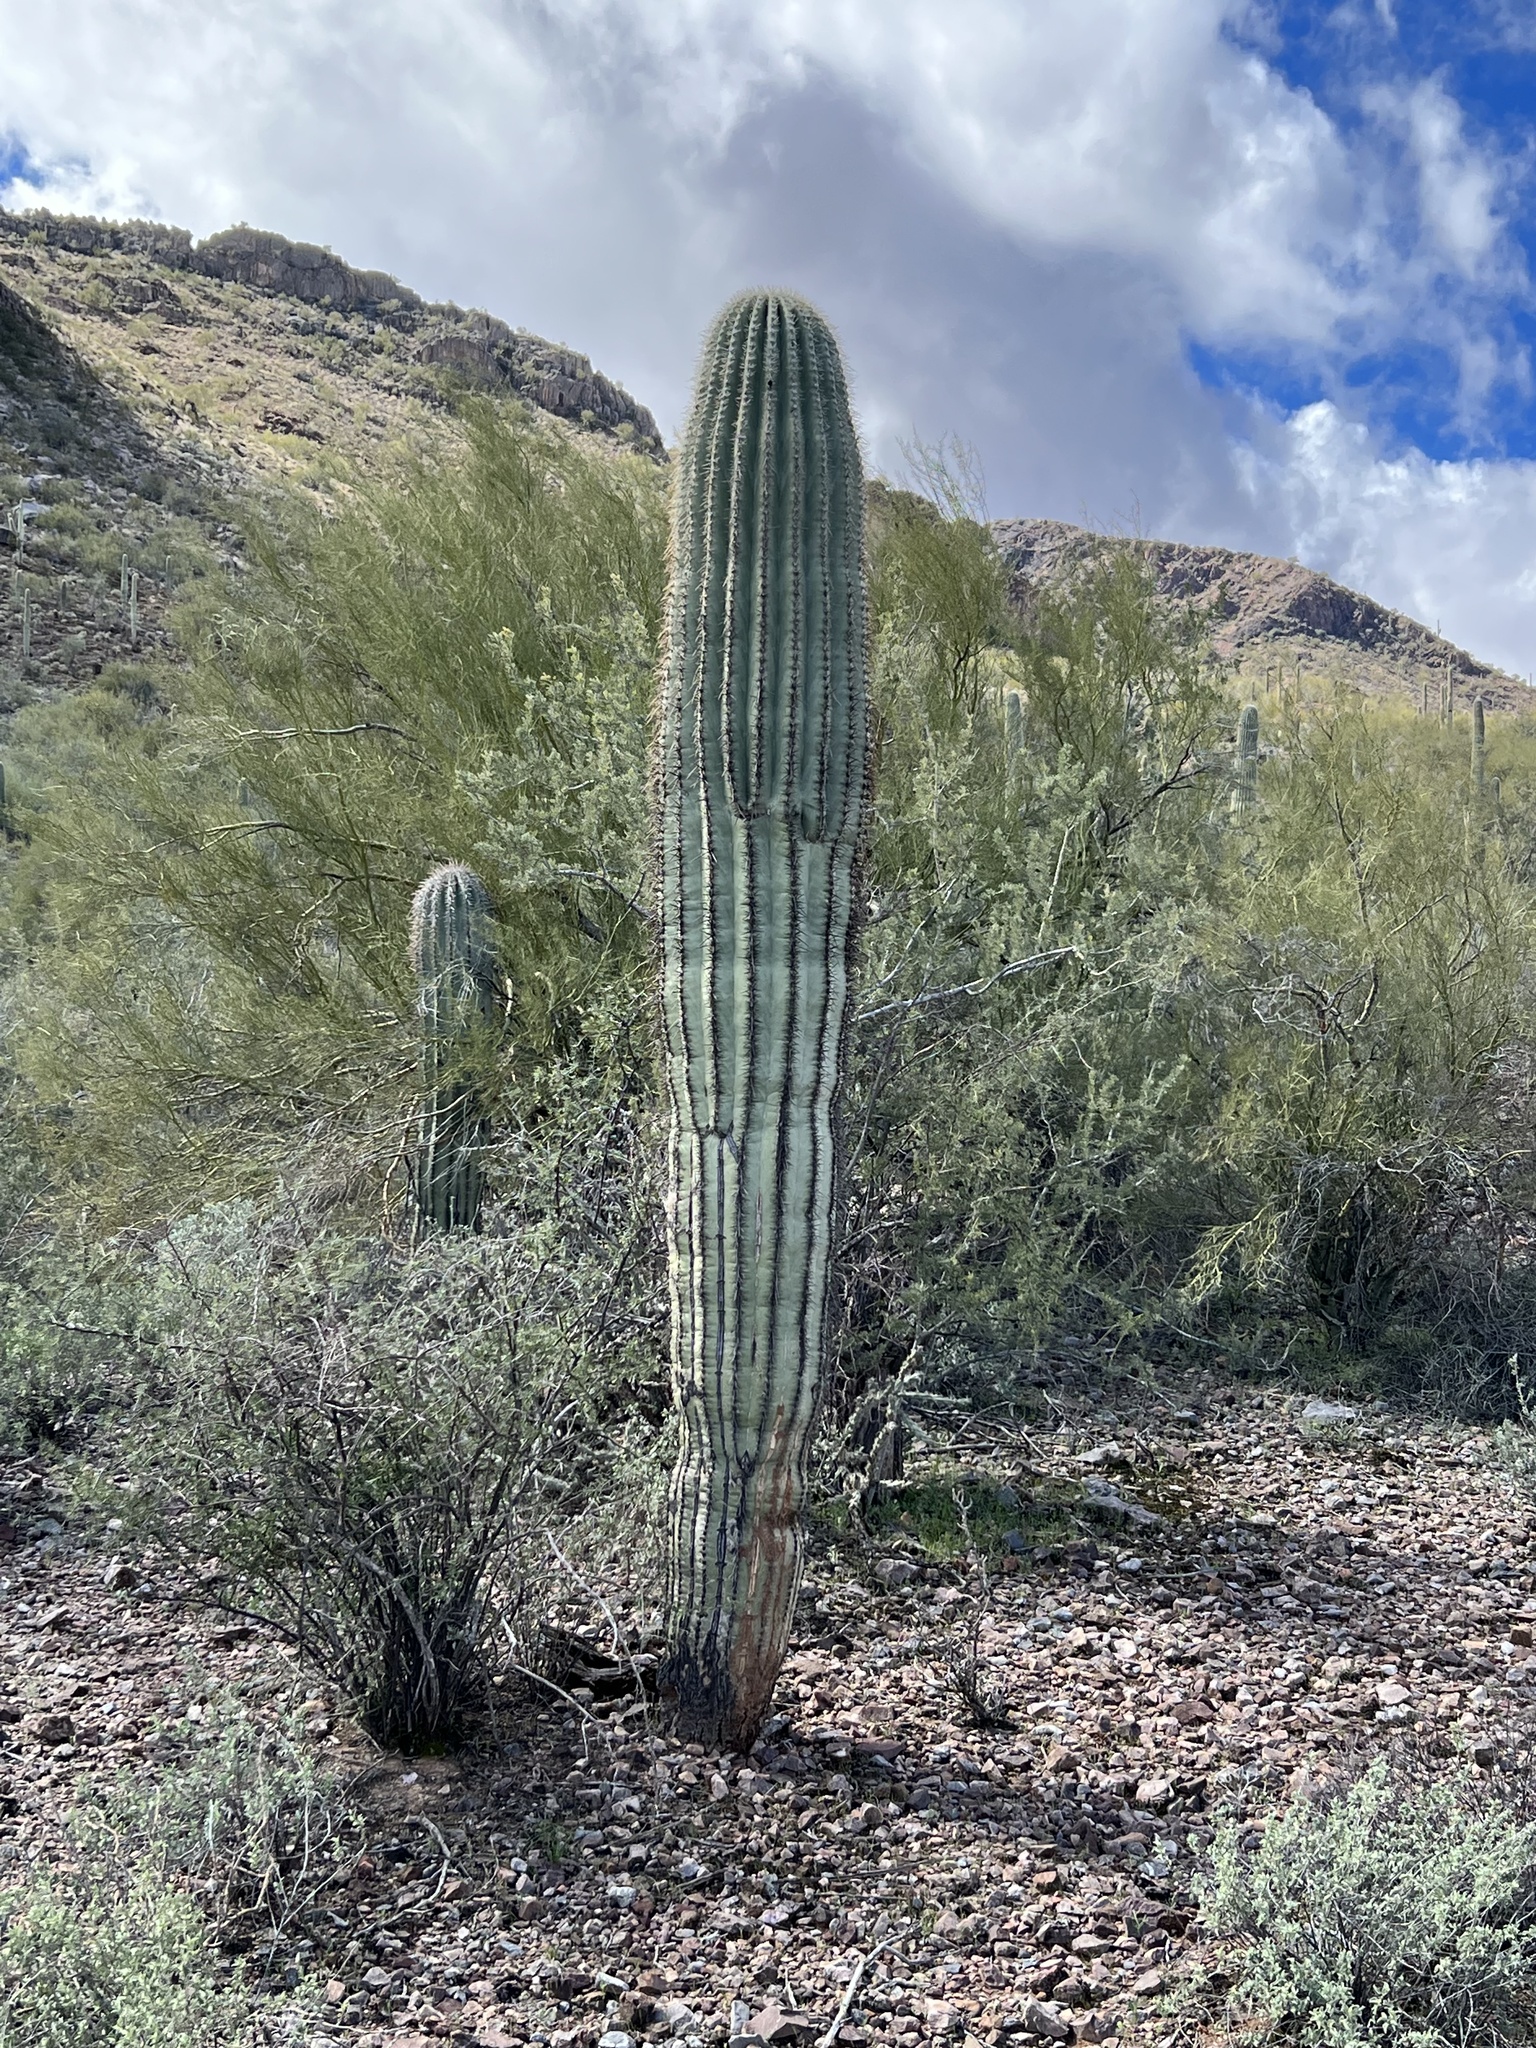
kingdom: Plantae
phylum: Tracheophyta
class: Magnoliopsida
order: Caryophyllales
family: Cactaceae
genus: Carnegiea
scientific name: Carnegiea gigantea
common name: Saguaro
